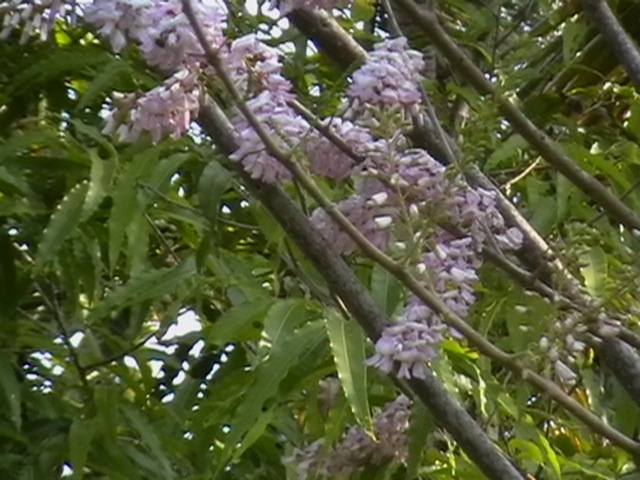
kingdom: Plantae
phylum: Tracheophyta
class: Magnoliopsida
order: Fabales
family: Fabaceae
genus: Gliricidia
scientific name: Gliricidia sepium
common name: Quickstick
